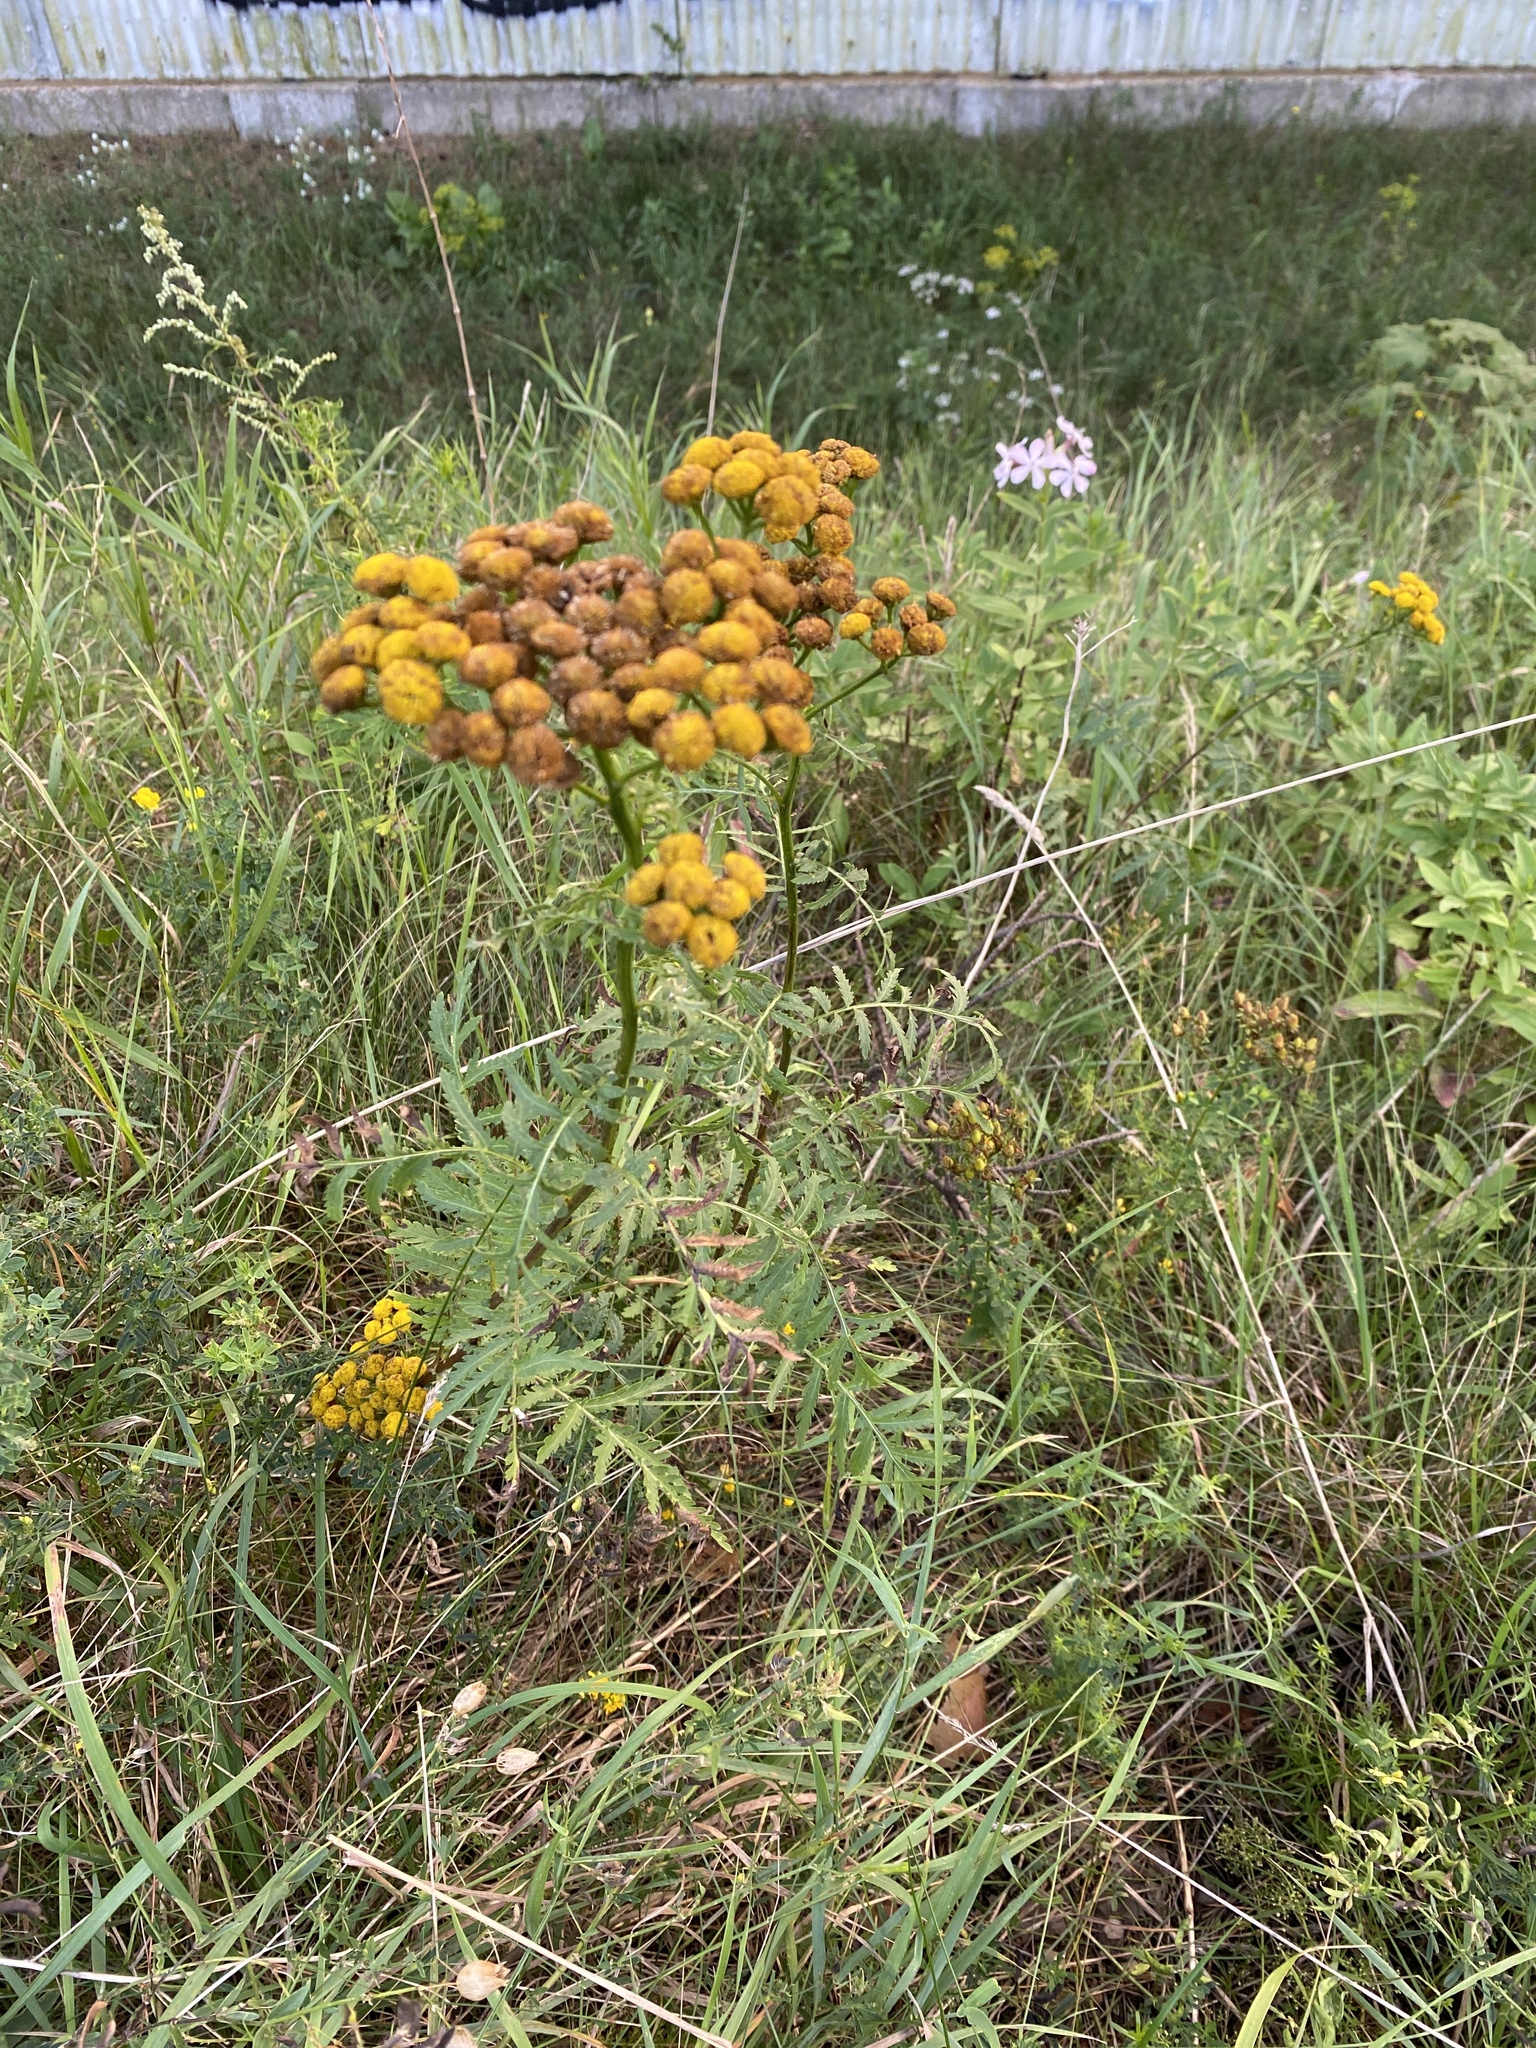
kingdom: Plantae
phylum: Tracheophyta
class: Magnoliopsida
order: Asterales
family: Asteraceae
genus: Tanacetum
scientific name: Tanacetum vulgare
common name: Common tansy
